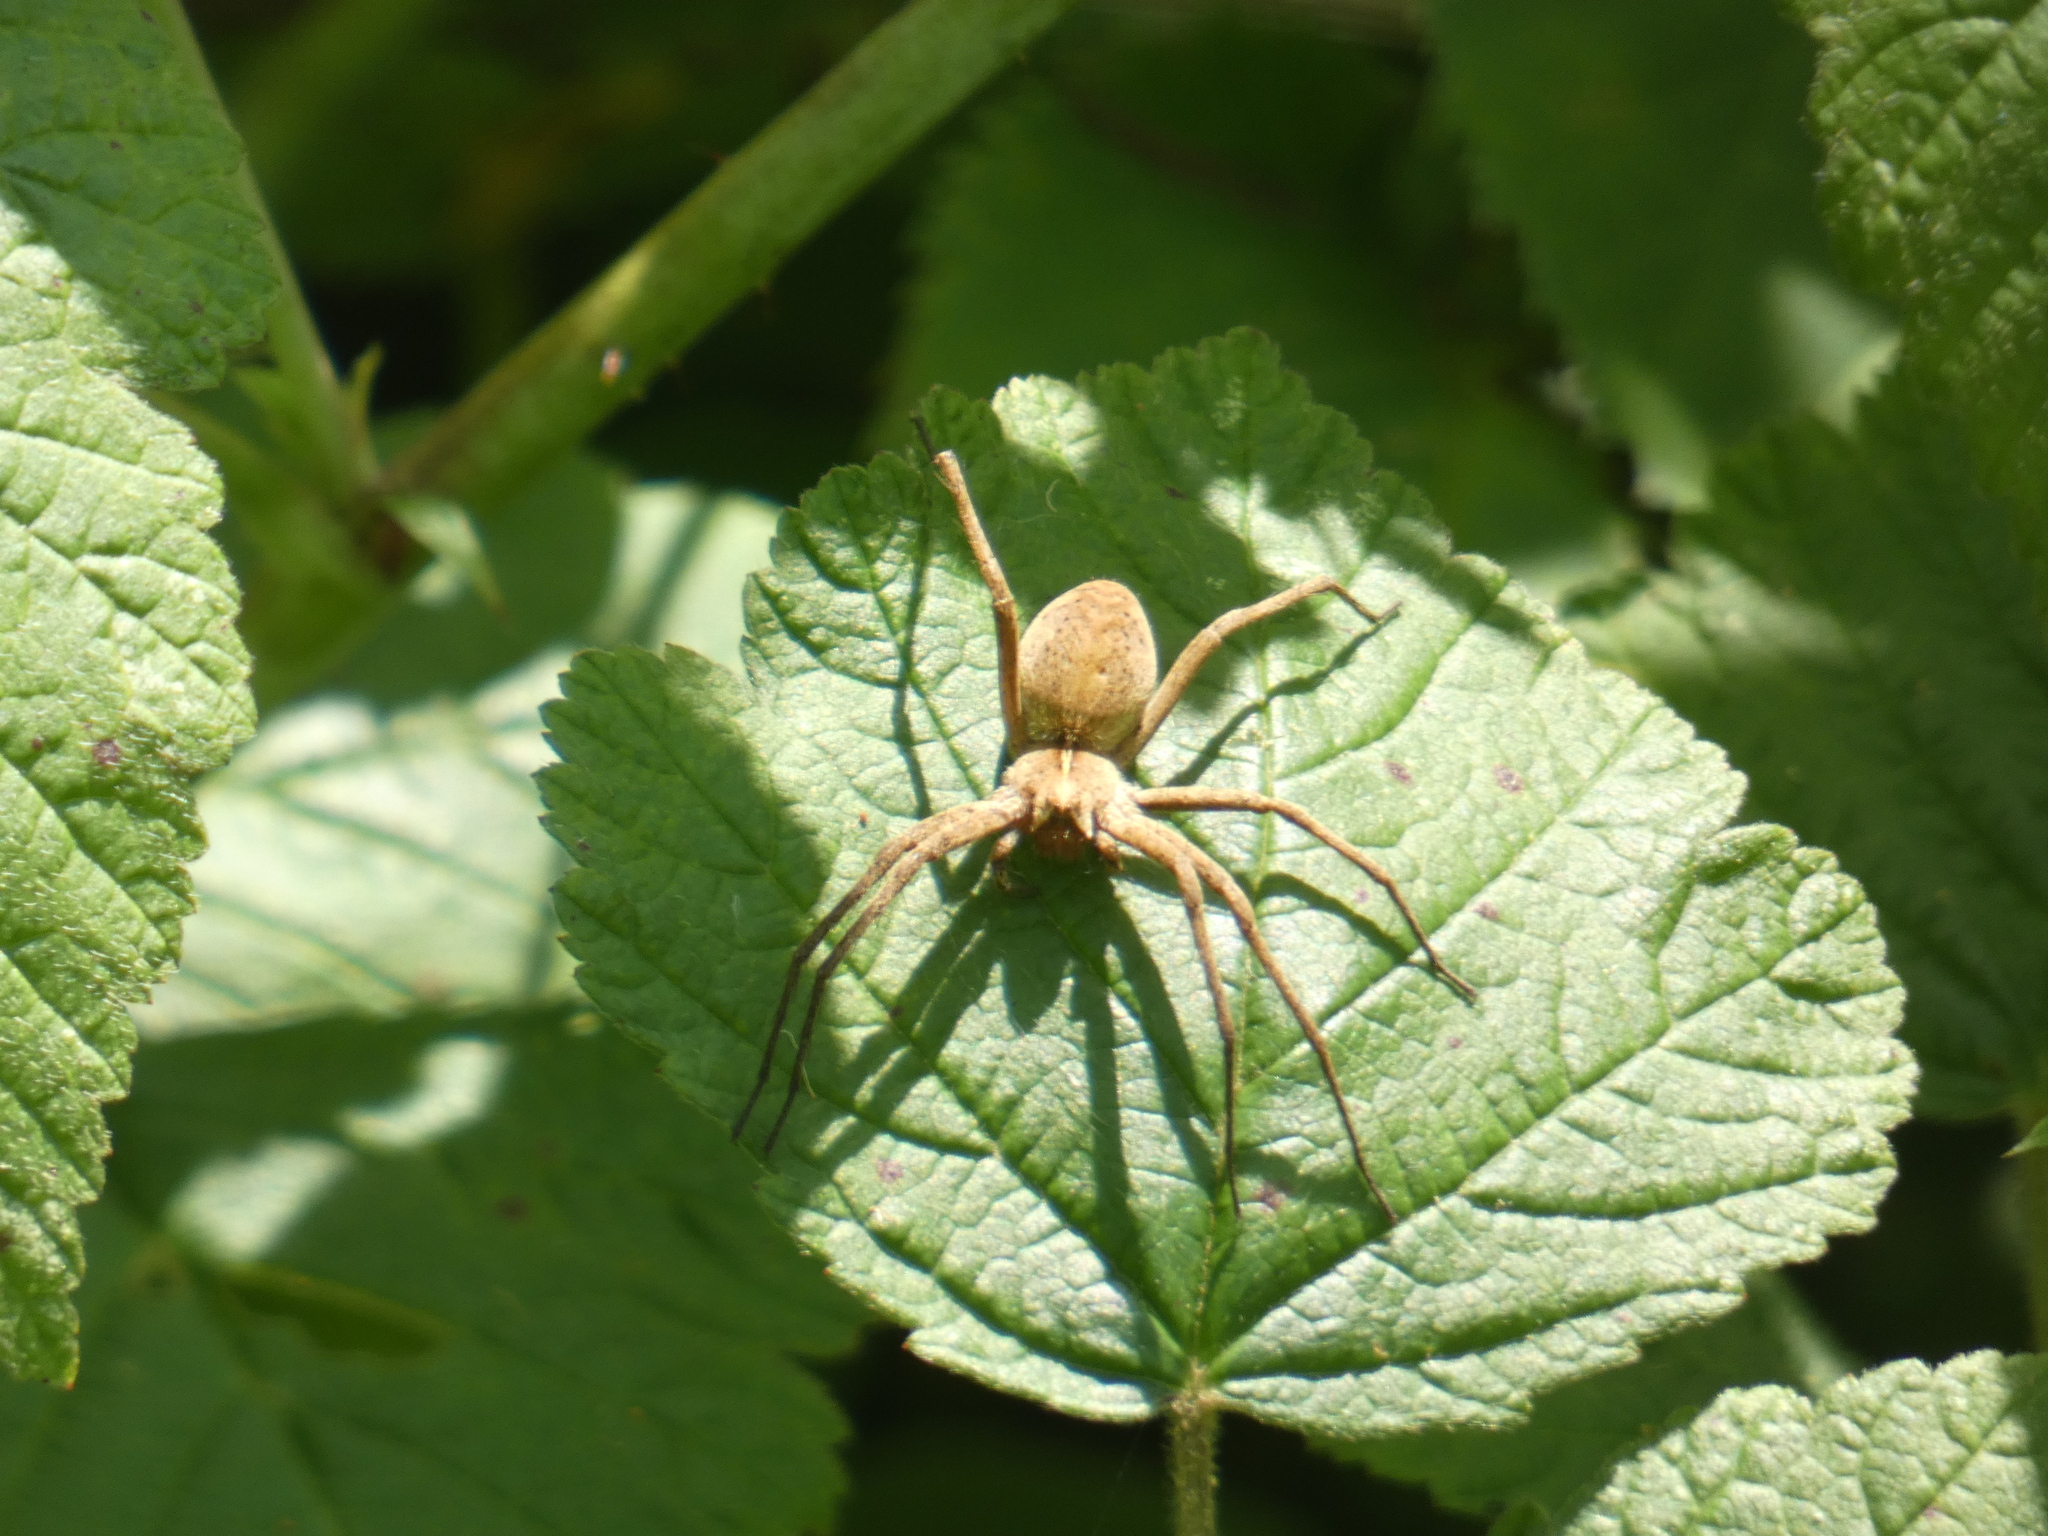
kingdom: Animalia
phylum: Arthropoda
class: Arachnida
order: Araneae
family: Pisauridae
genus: Pisaura
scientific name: Pisaura mirabilis
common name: Tent spider
